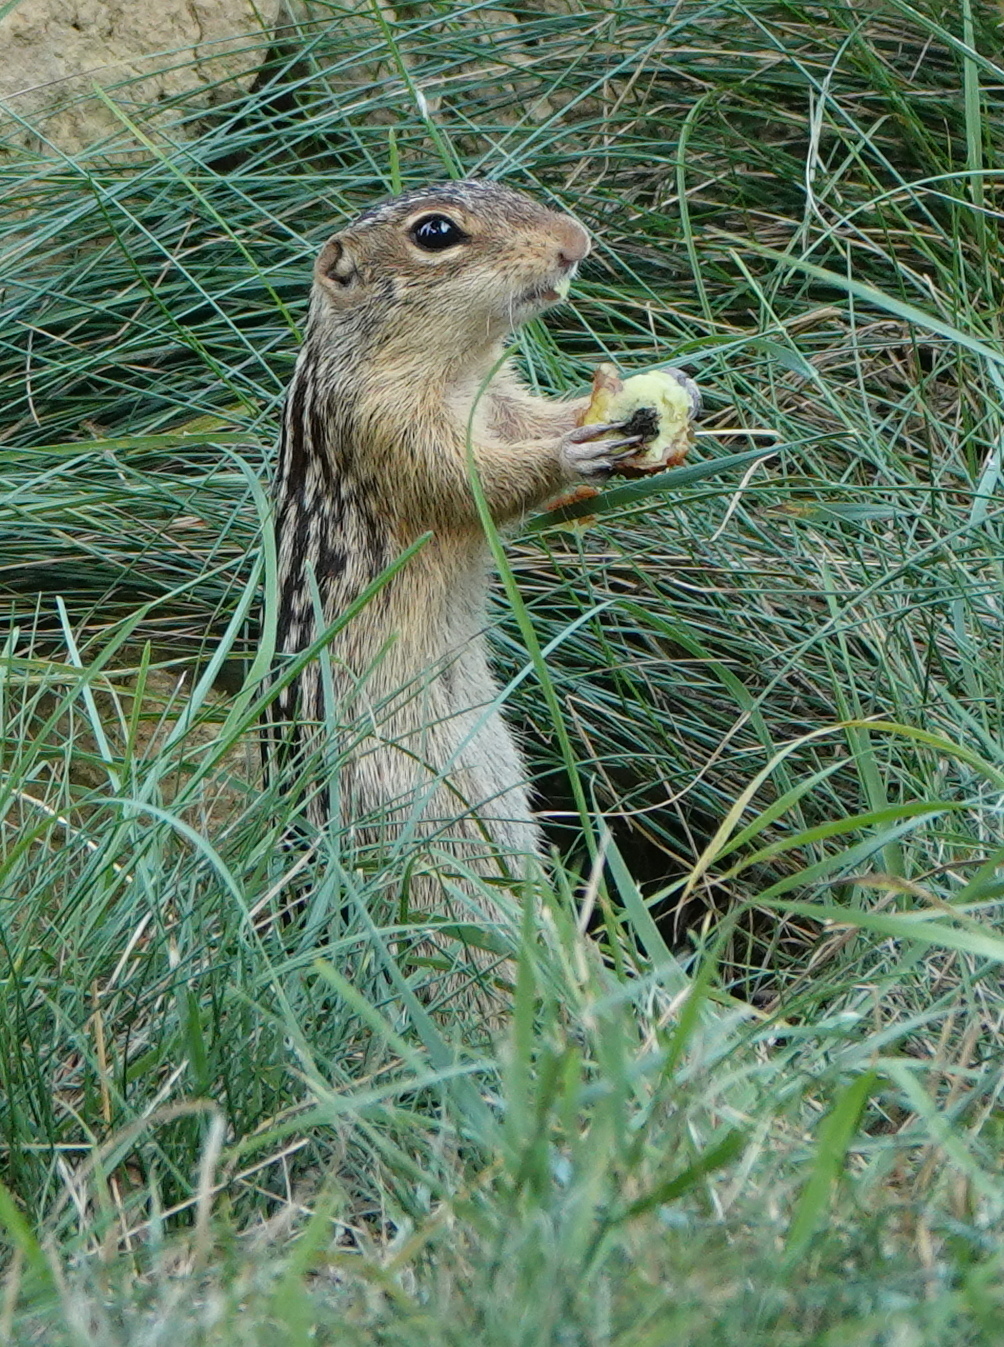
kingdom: Animalia
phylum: Chordata
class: Mammalia
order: Rodentia
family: Sciuridae
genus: Ictidomys
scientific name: Ictidomys tridecemlineatus
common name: Thirteen-lined ground squirrel
